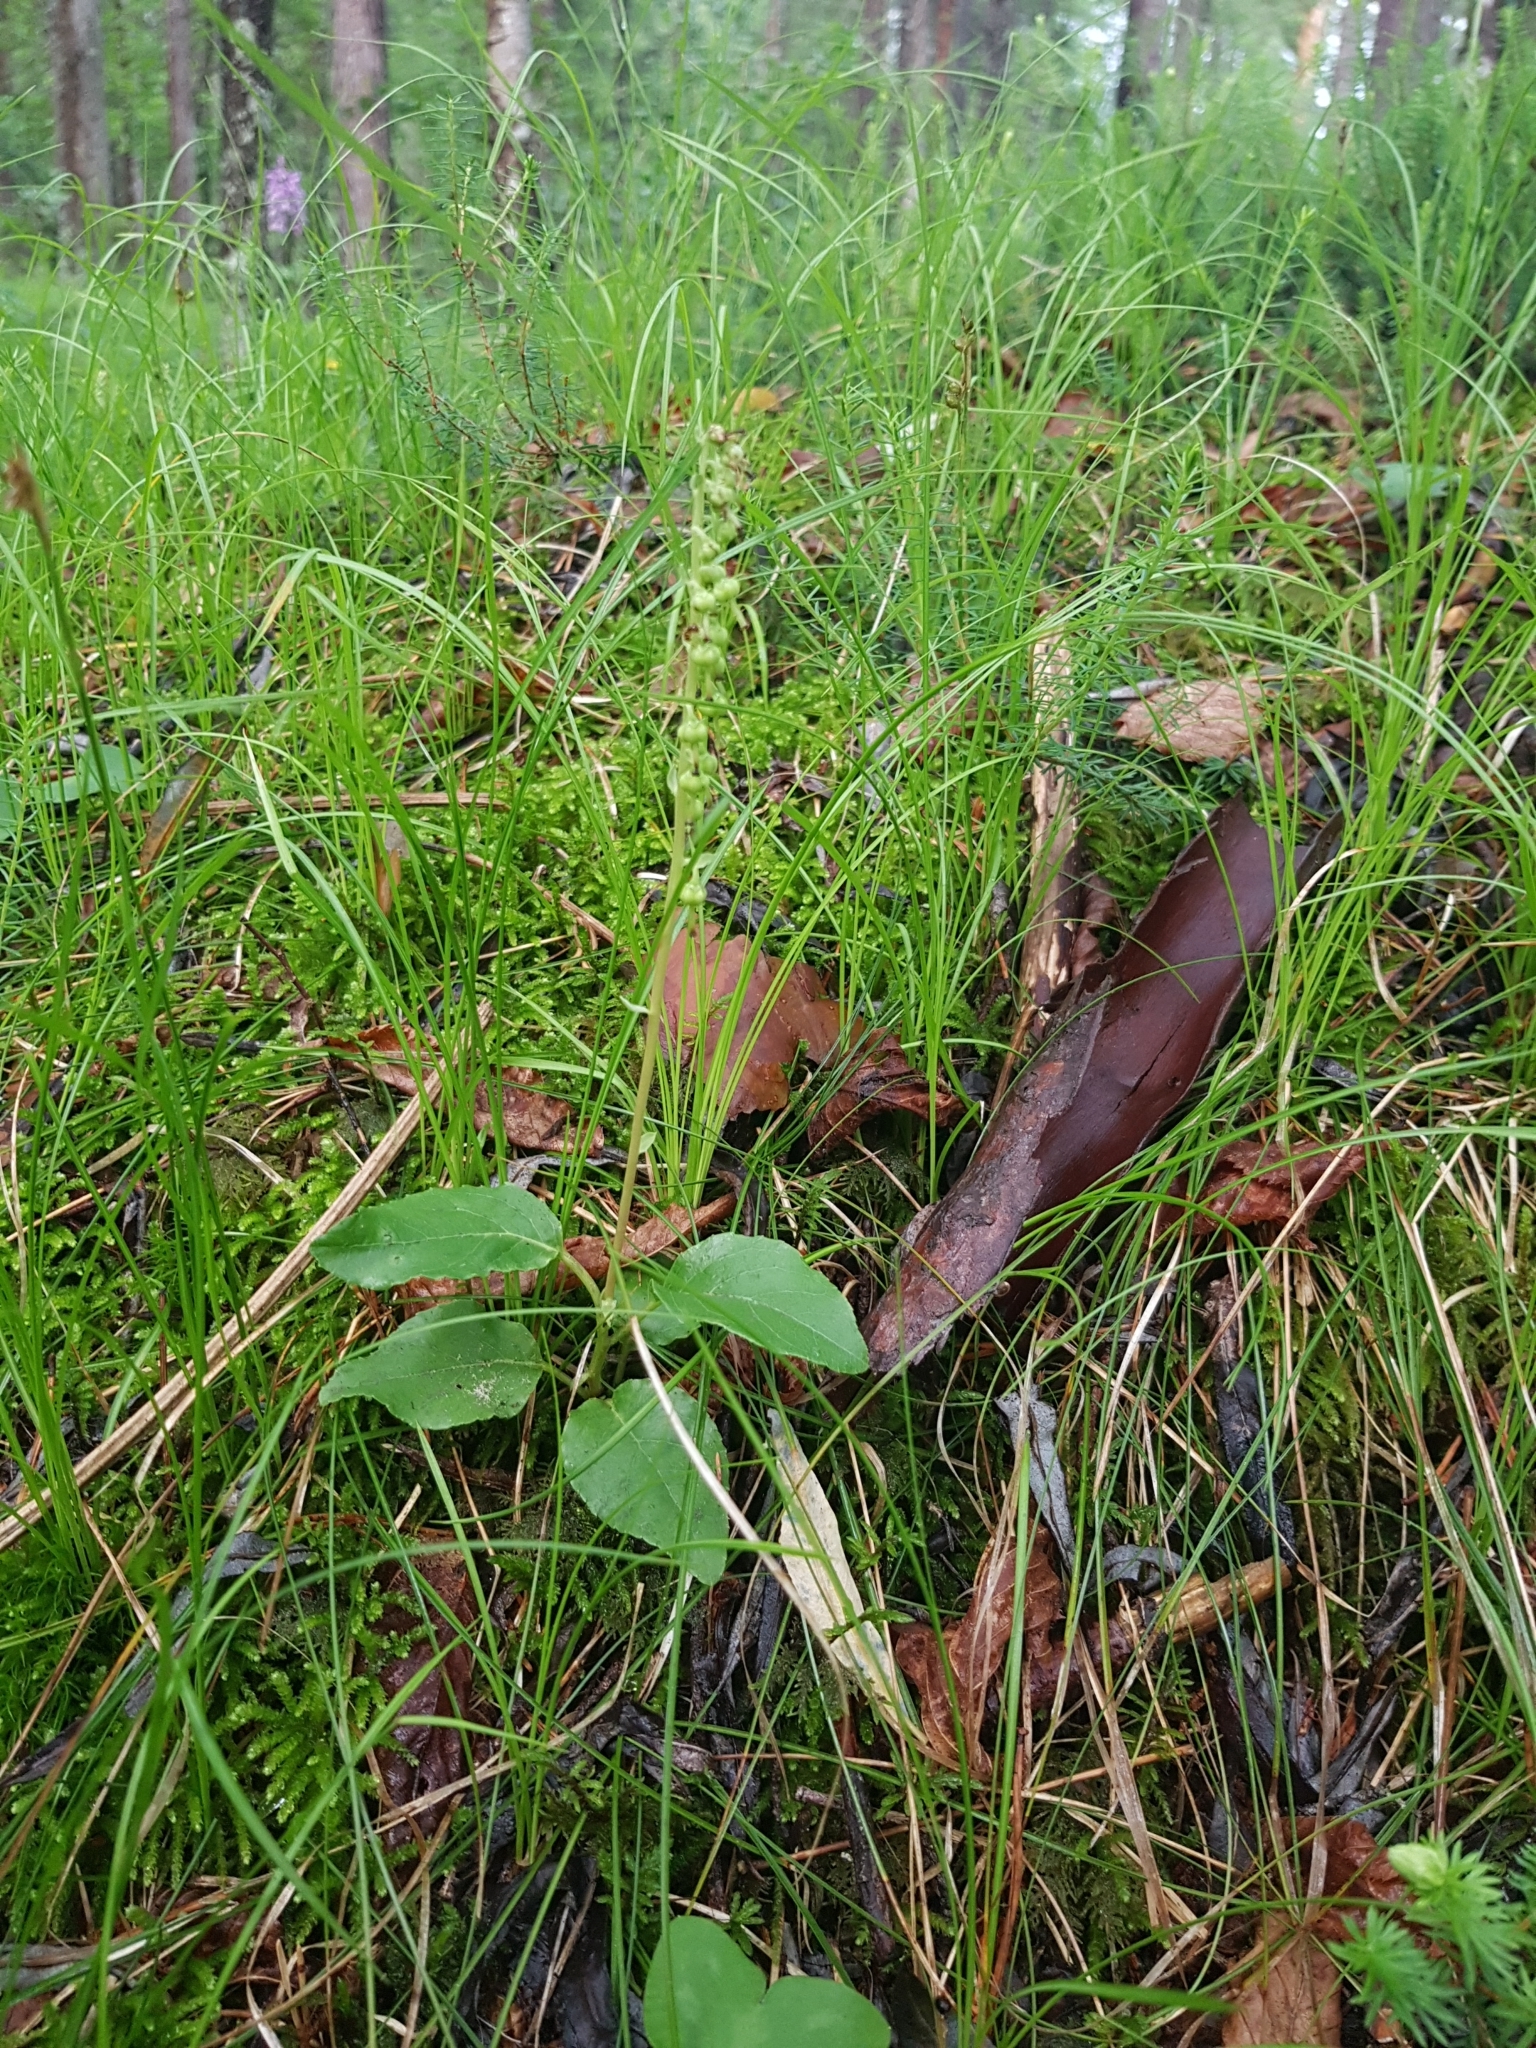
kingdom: Plantae
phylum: Tracheophyta
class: Magnoliopsida
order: Ericales
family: Ericaceae
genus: Orthilia
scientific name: Orthilia secunda
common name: One-sided orthilia
